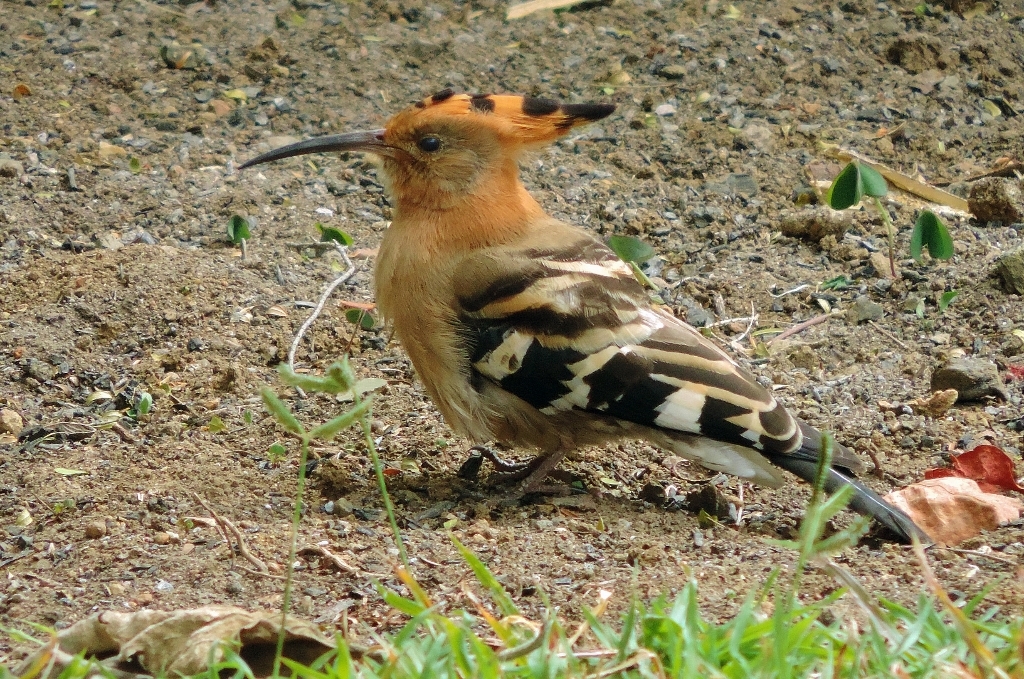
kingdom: Animalia
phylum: Chordata
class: Aves
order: Bucerotiformes
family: Upupidae
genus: Upupa
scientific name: Upupa africana
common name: African hoopoe
